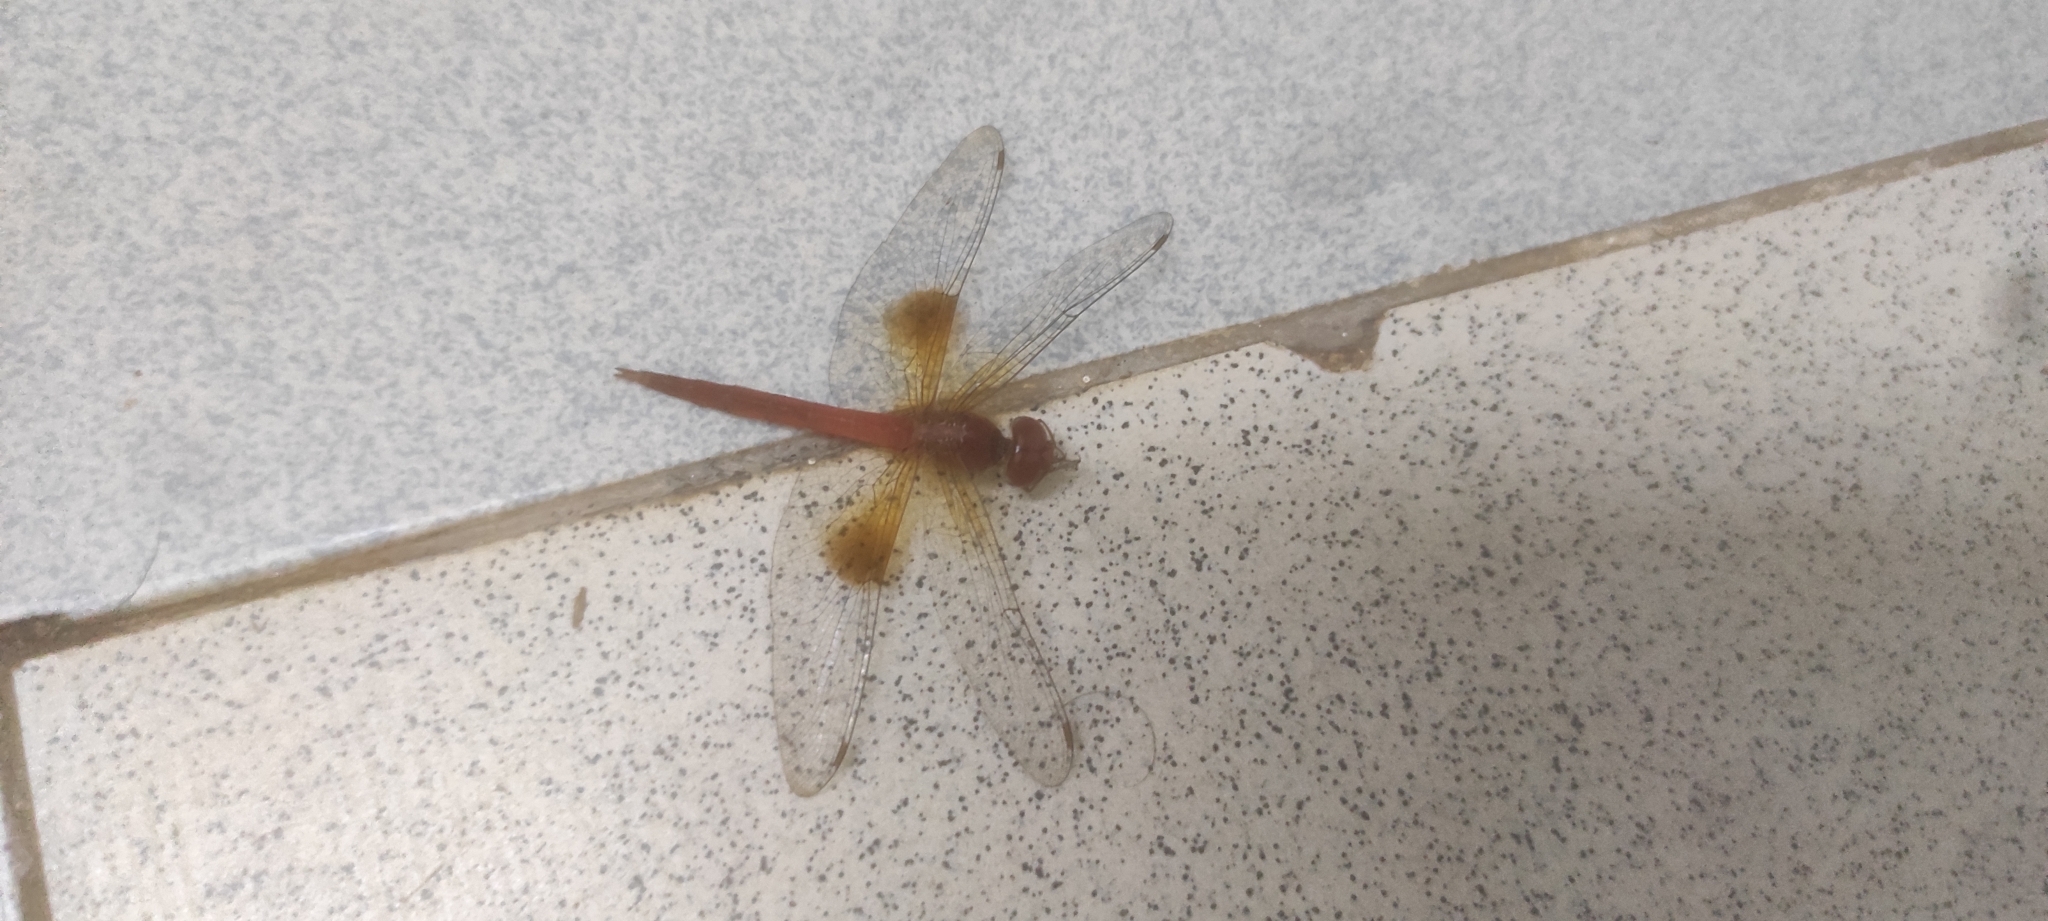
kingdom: Animalia
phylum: Arthropoda
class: Insecta
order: Odonata
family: Libellulidae
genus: Tholymis
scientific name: Tholymis tillarga
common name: Coral-tailed cloud wing
